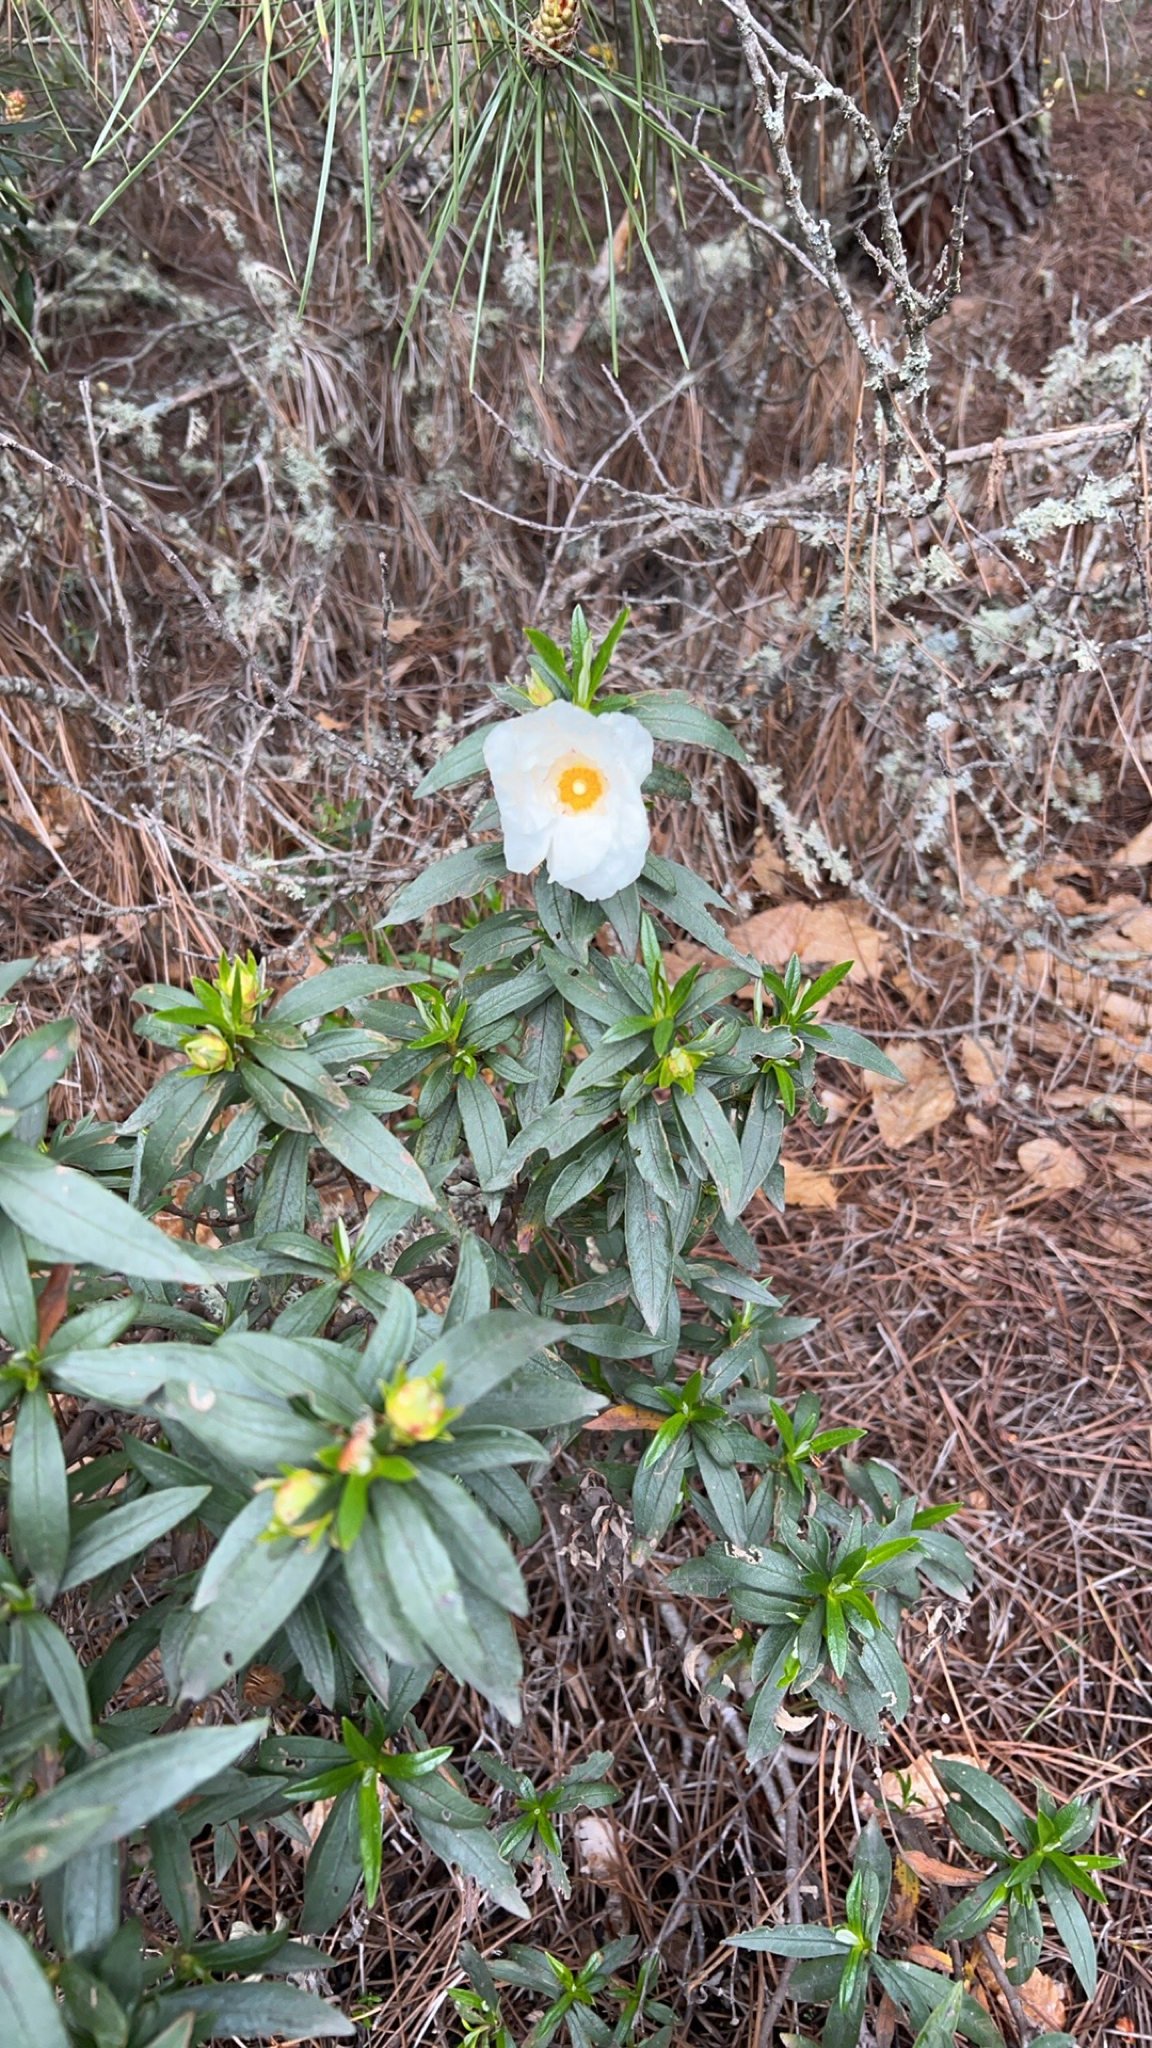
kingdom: Plantae
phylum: Tracheophyta
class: Magnoliopsida
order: Malvales
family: Cistaceae
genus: Cistus
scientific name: Cistus ladanifer
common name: Common gum cistus
